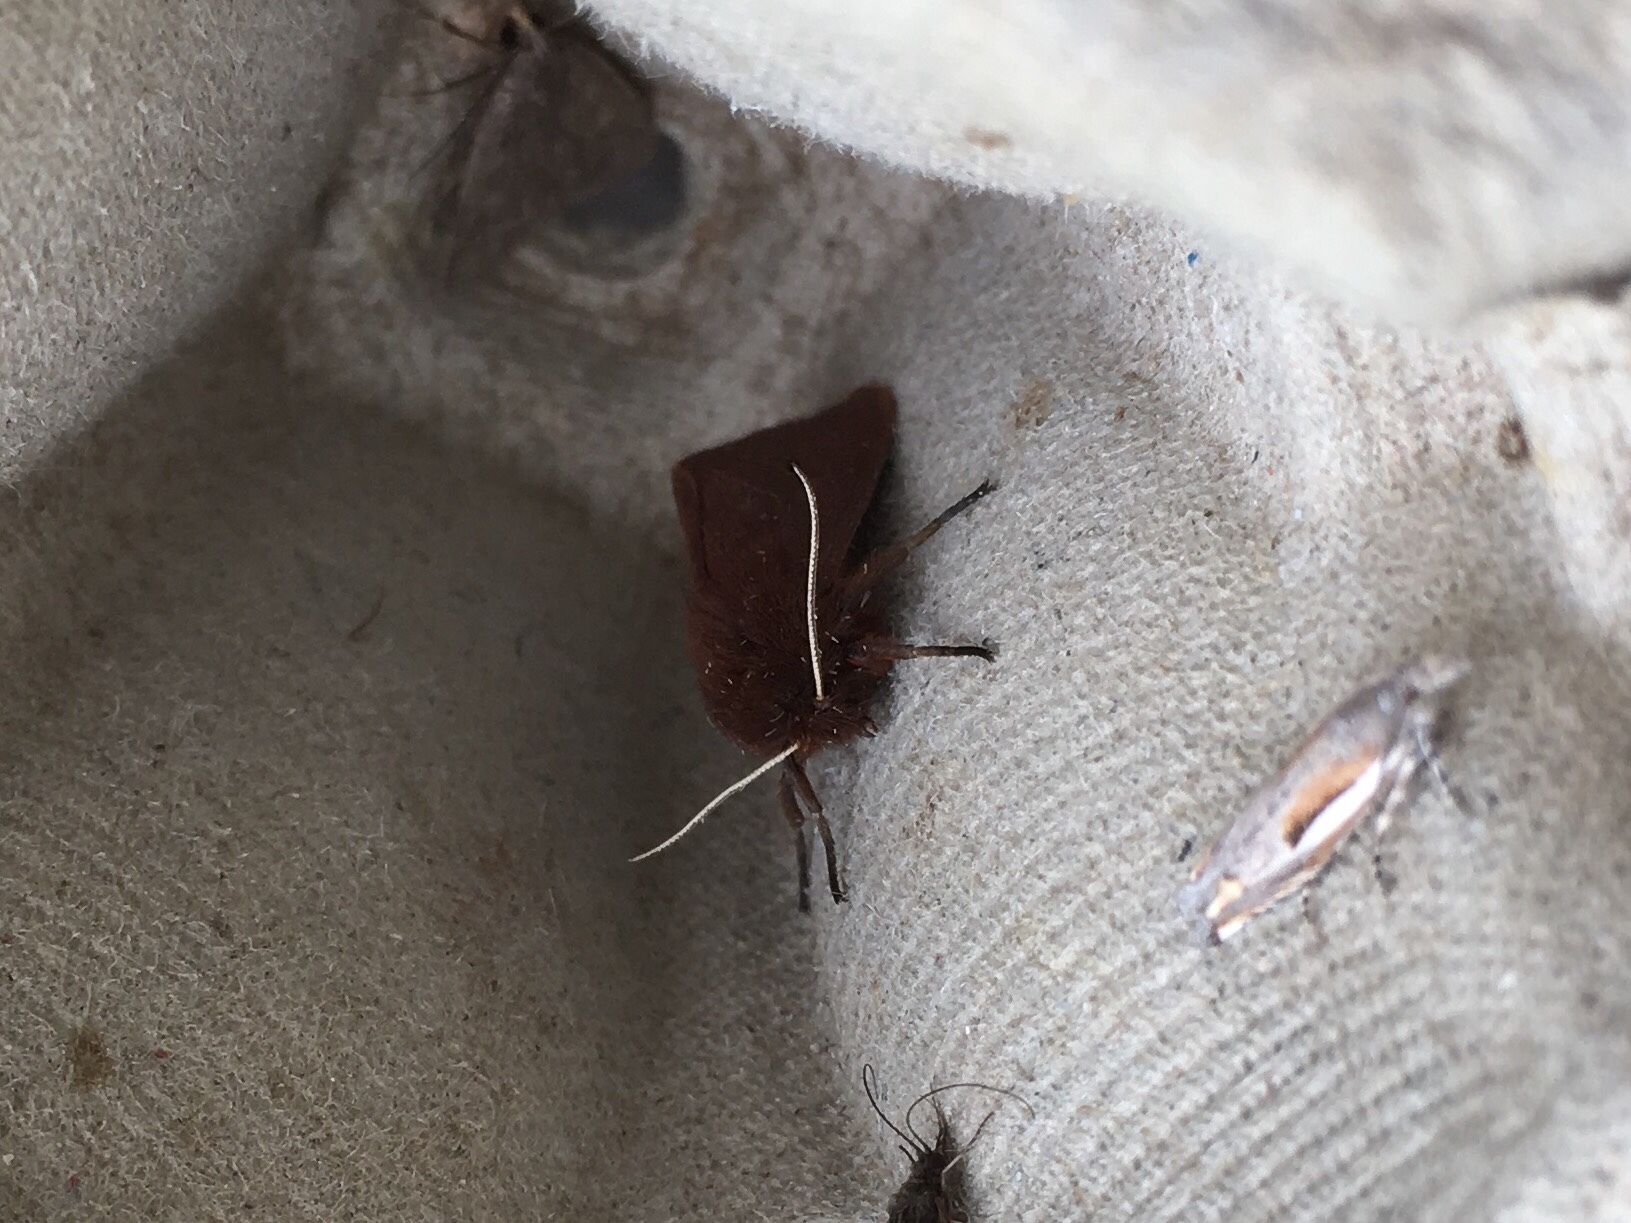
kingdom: Animalia
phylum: Arthropoda
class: Insecta
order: Lepidoptera
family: Erebidae
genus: Phragmatobia
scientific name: Phragmatobia fuliginosa
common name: Ruby tiger
